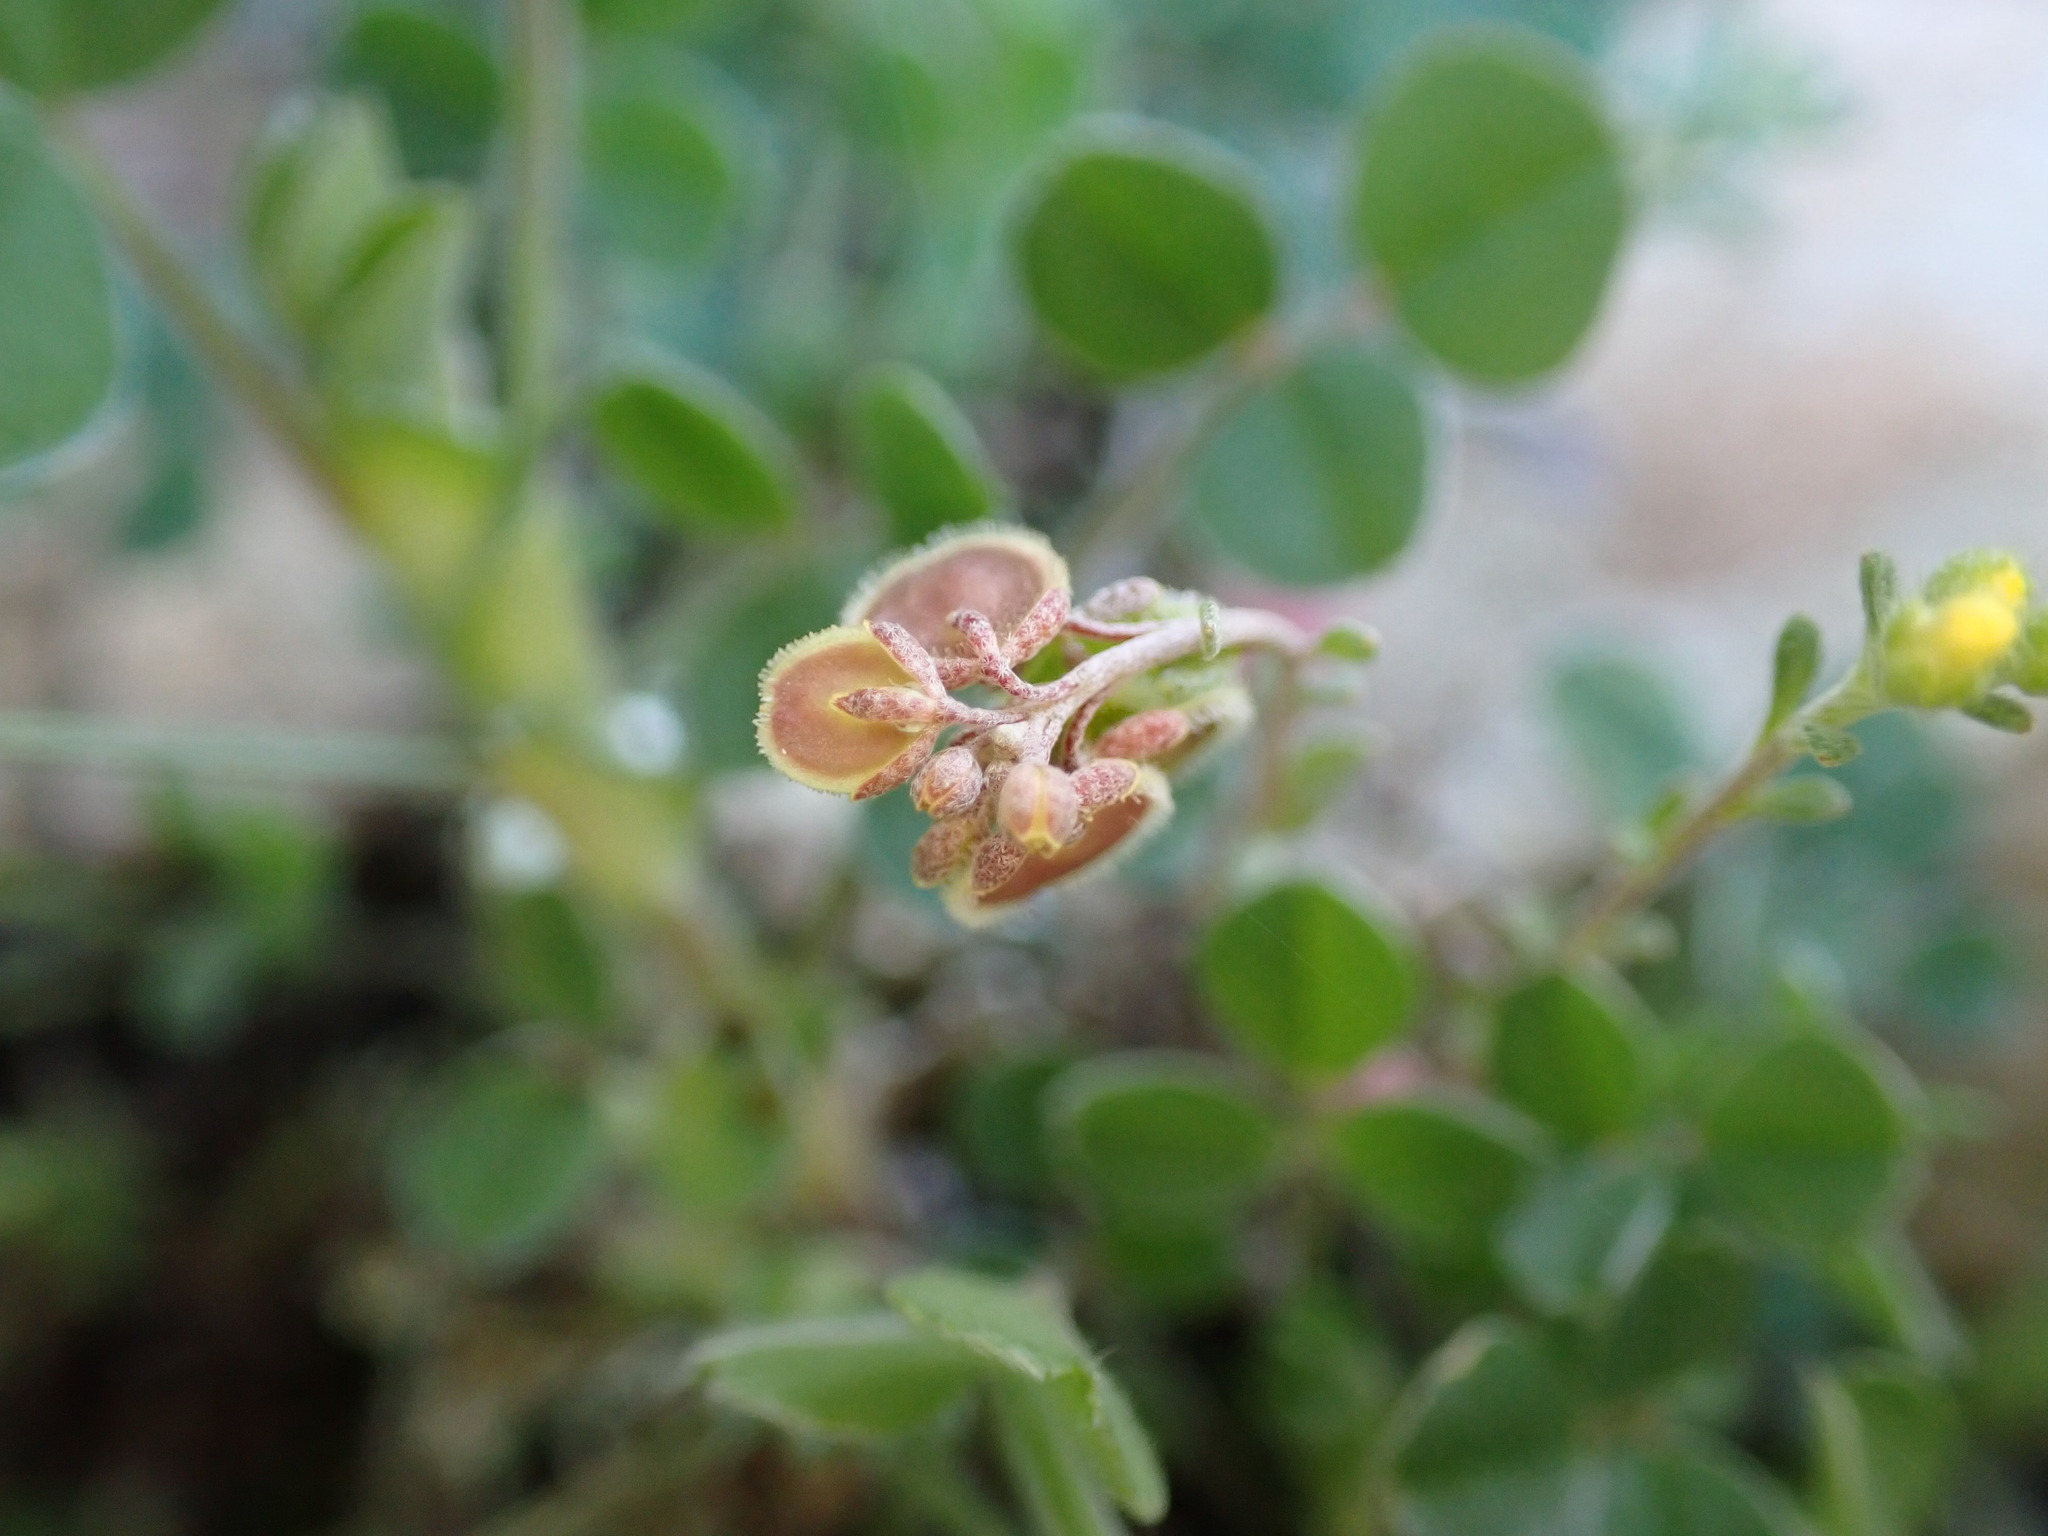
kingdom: Plantae
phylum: Tracheophyta
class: Magnoliopsida
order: Brassicales
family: Brassicaceae
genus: Clypeola
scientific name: Clypeola jonthlaspi
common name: Disk cress
